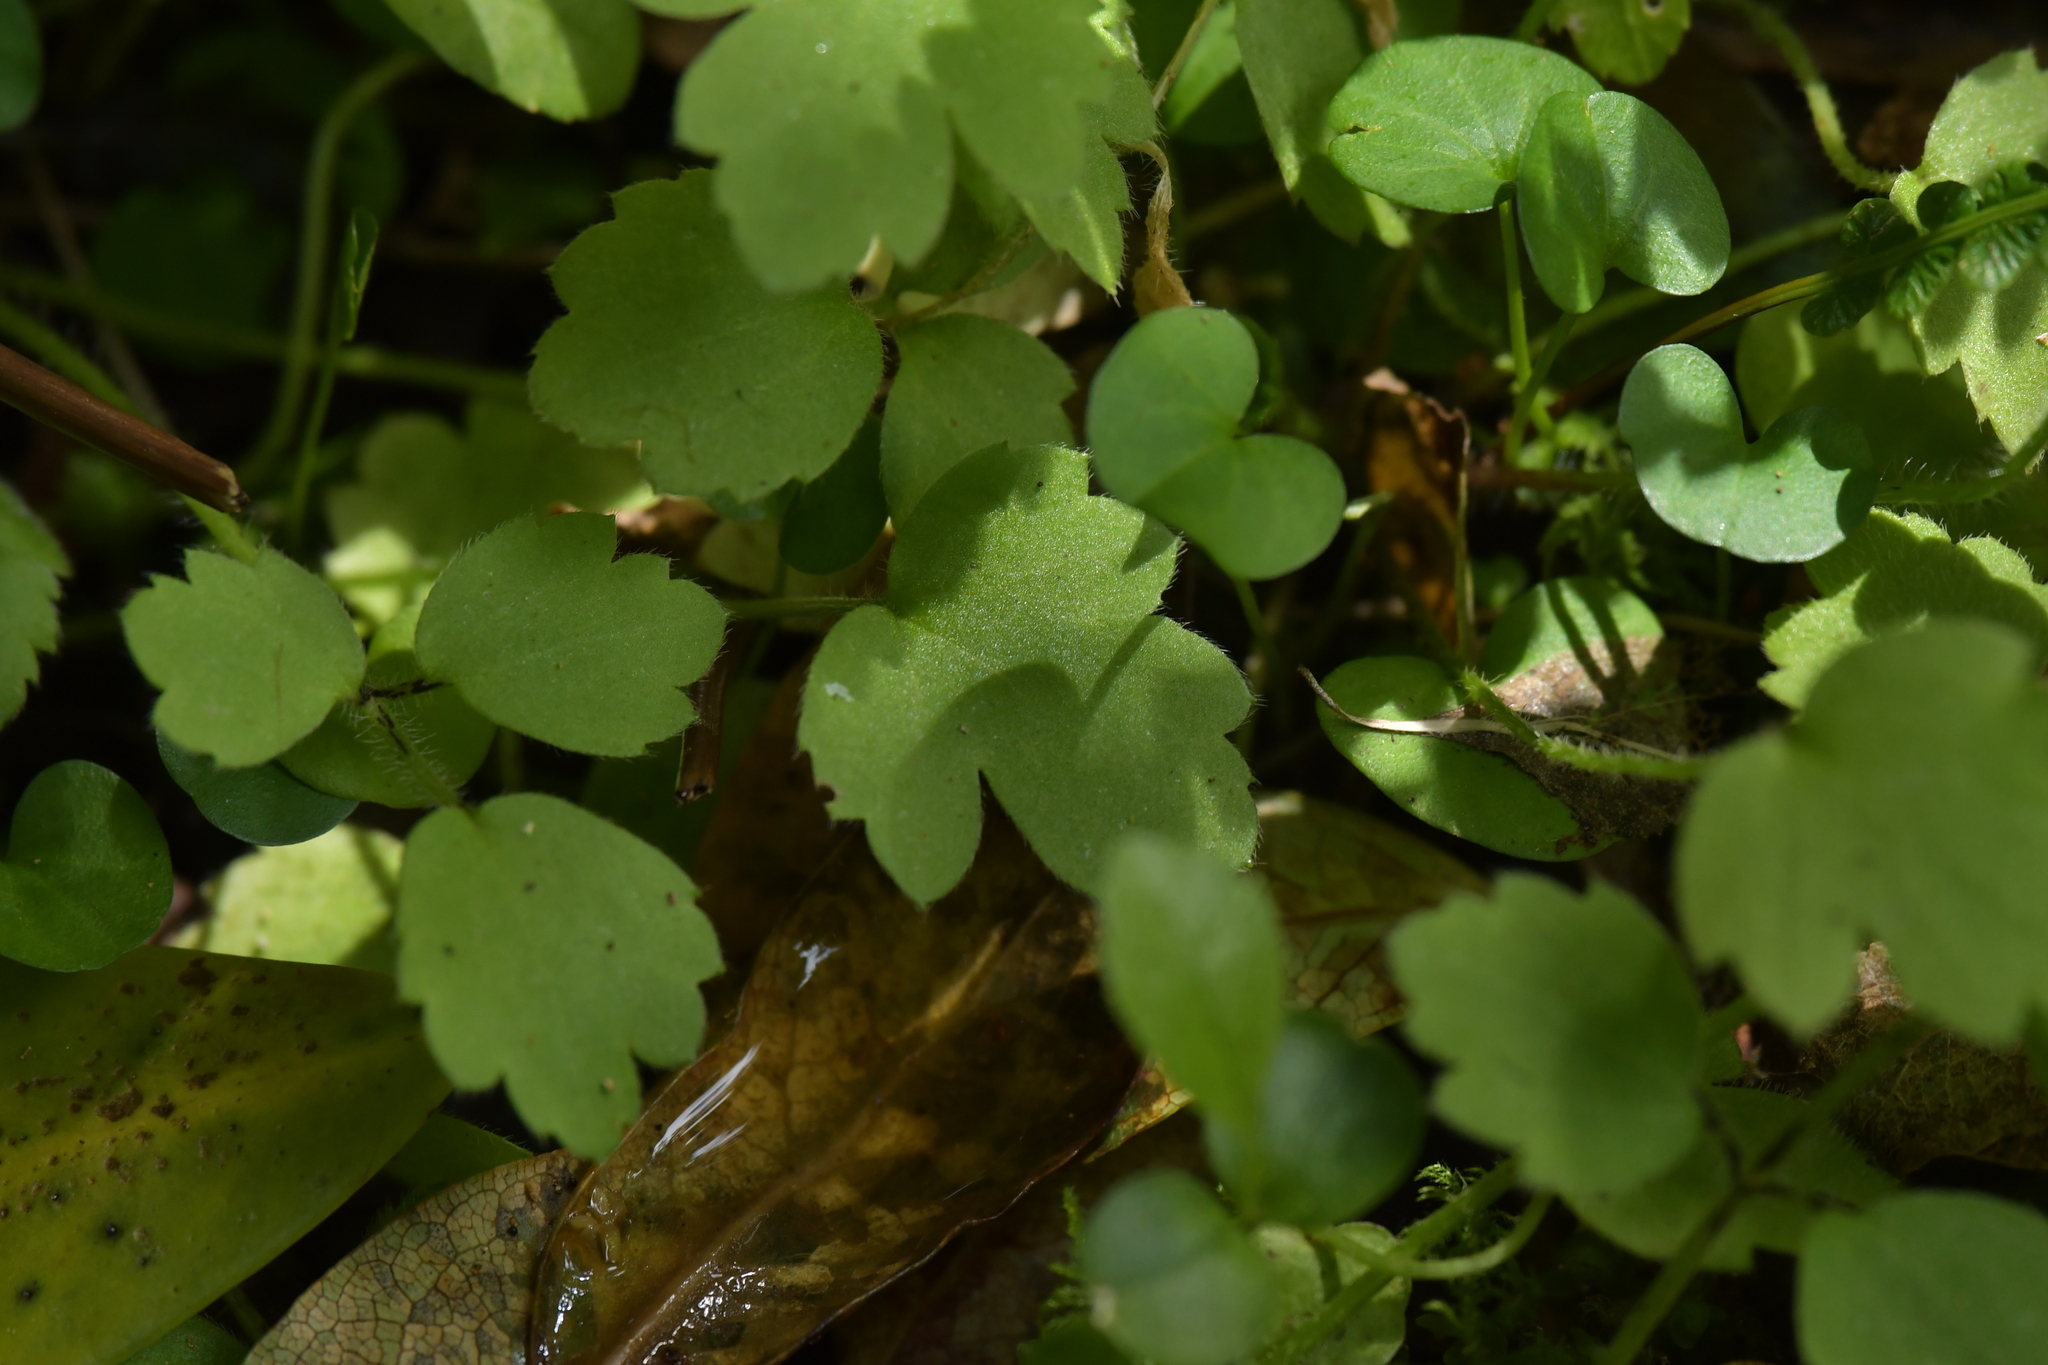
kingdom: Plantae
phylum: Tracheophyta
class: Magnoliopsida
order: Ranunculales
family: Ranunculaceae
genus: Ranunculus
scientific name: Ranunculus reflexus
